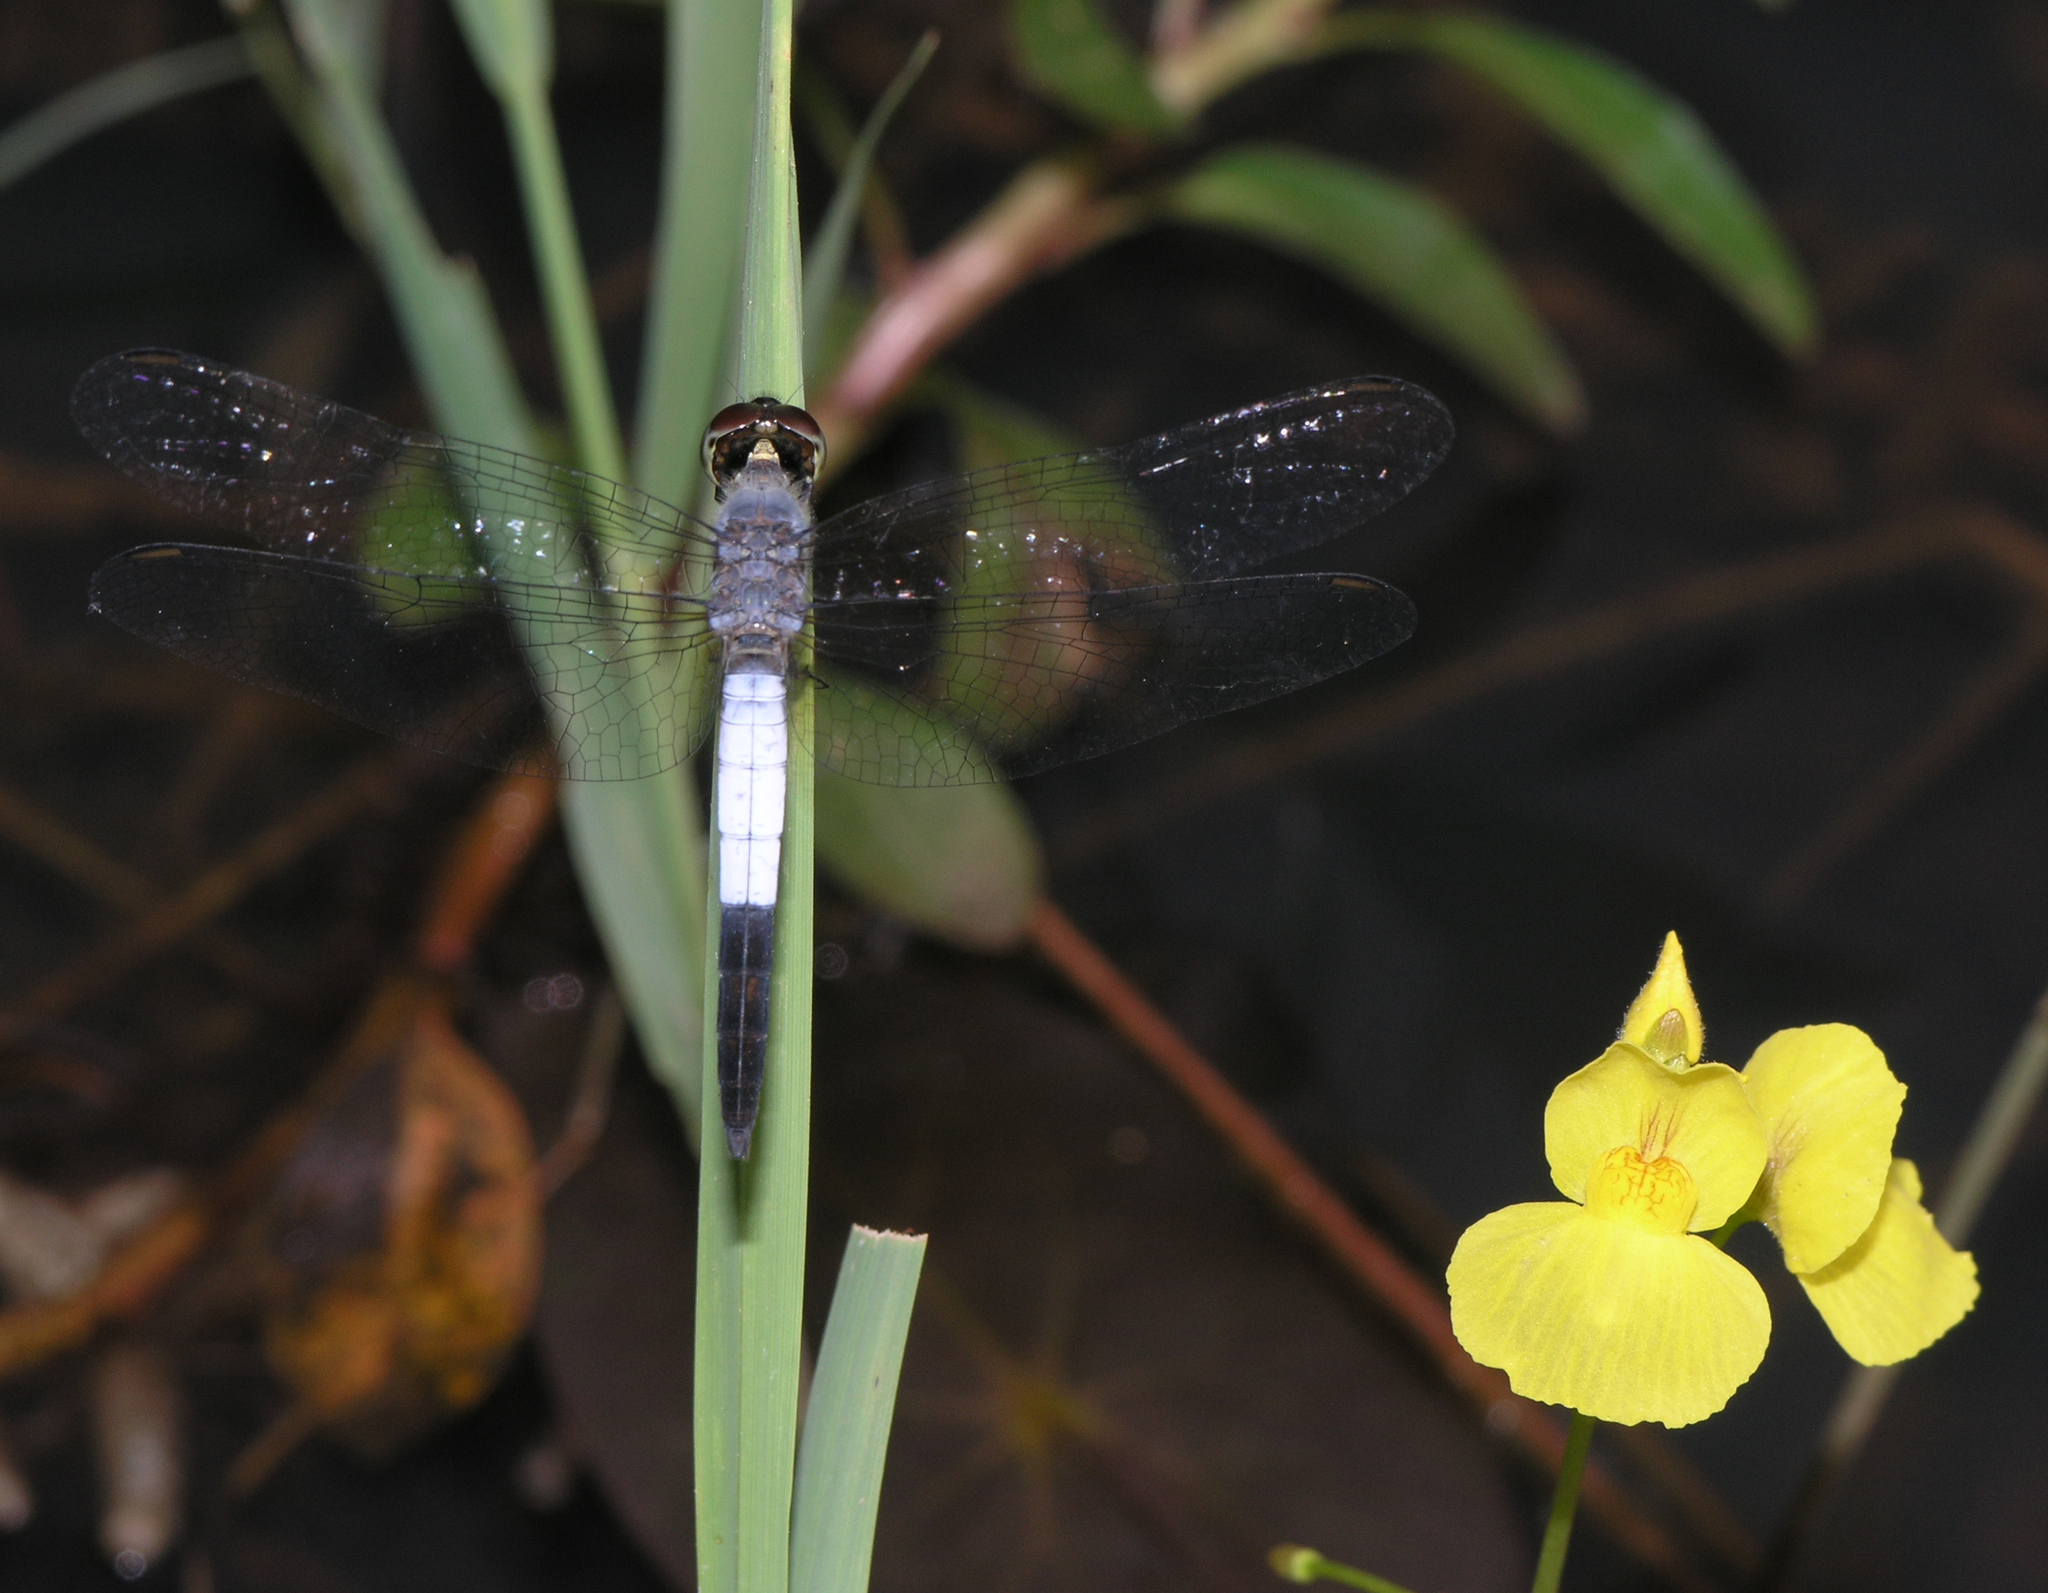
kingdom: Animalia
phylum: Arthropoda
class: Insecta
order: Odonata
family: Libellulidae
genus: Brachydiplax
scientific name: Brachydiplax farinosa
